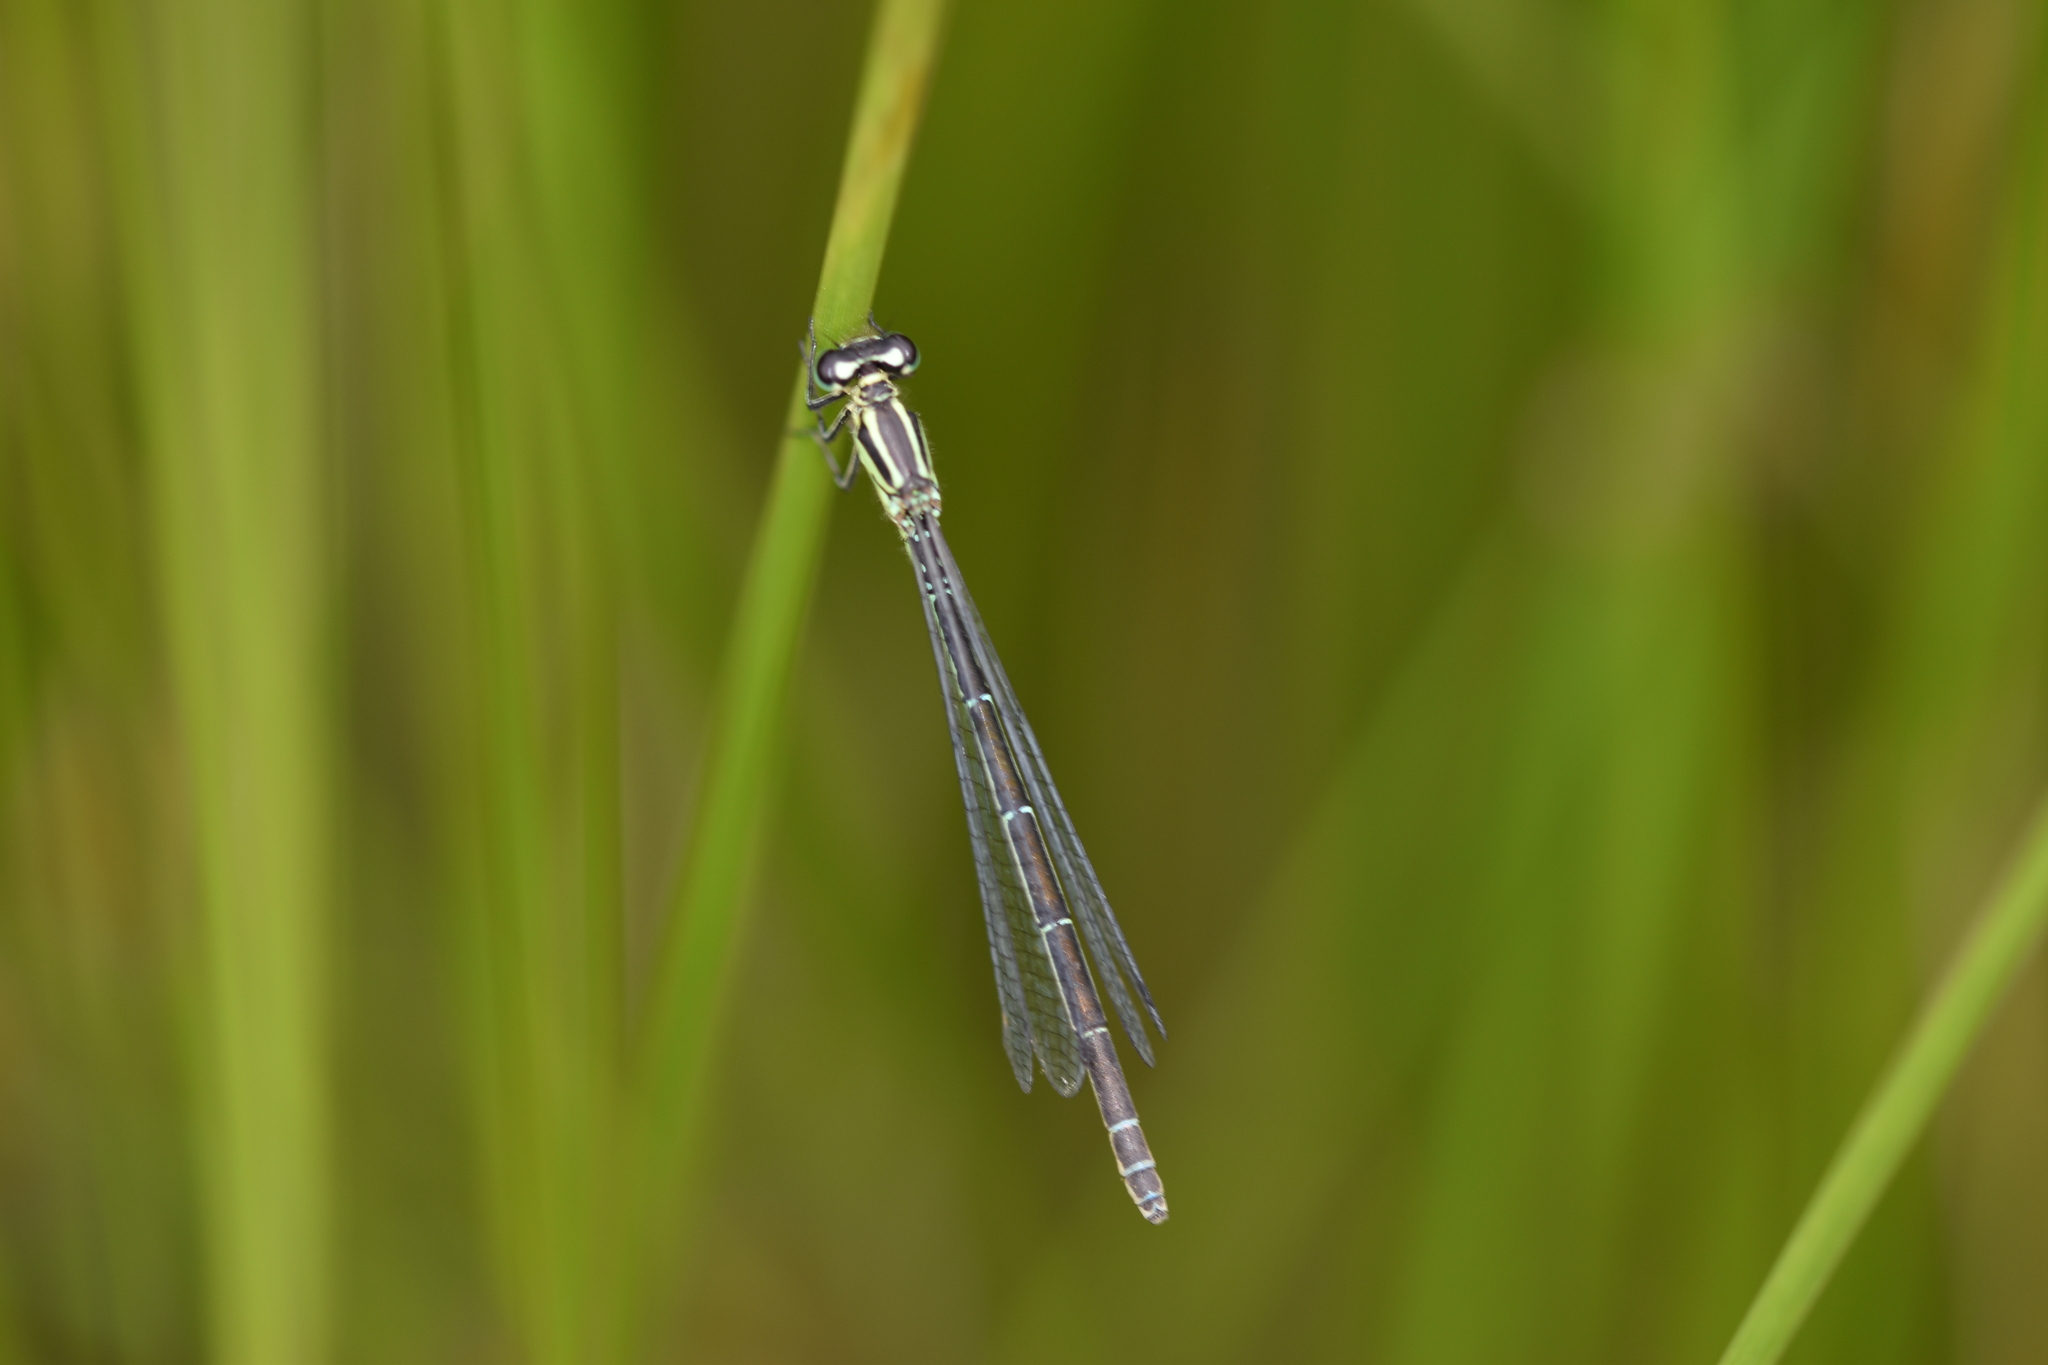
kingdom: Animalia
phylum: Arthropoda
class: Insecta
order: Odonata
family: Coenagrionidae
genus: Coenagrion
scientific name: Coenagrion puella
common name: Azure damselfly
